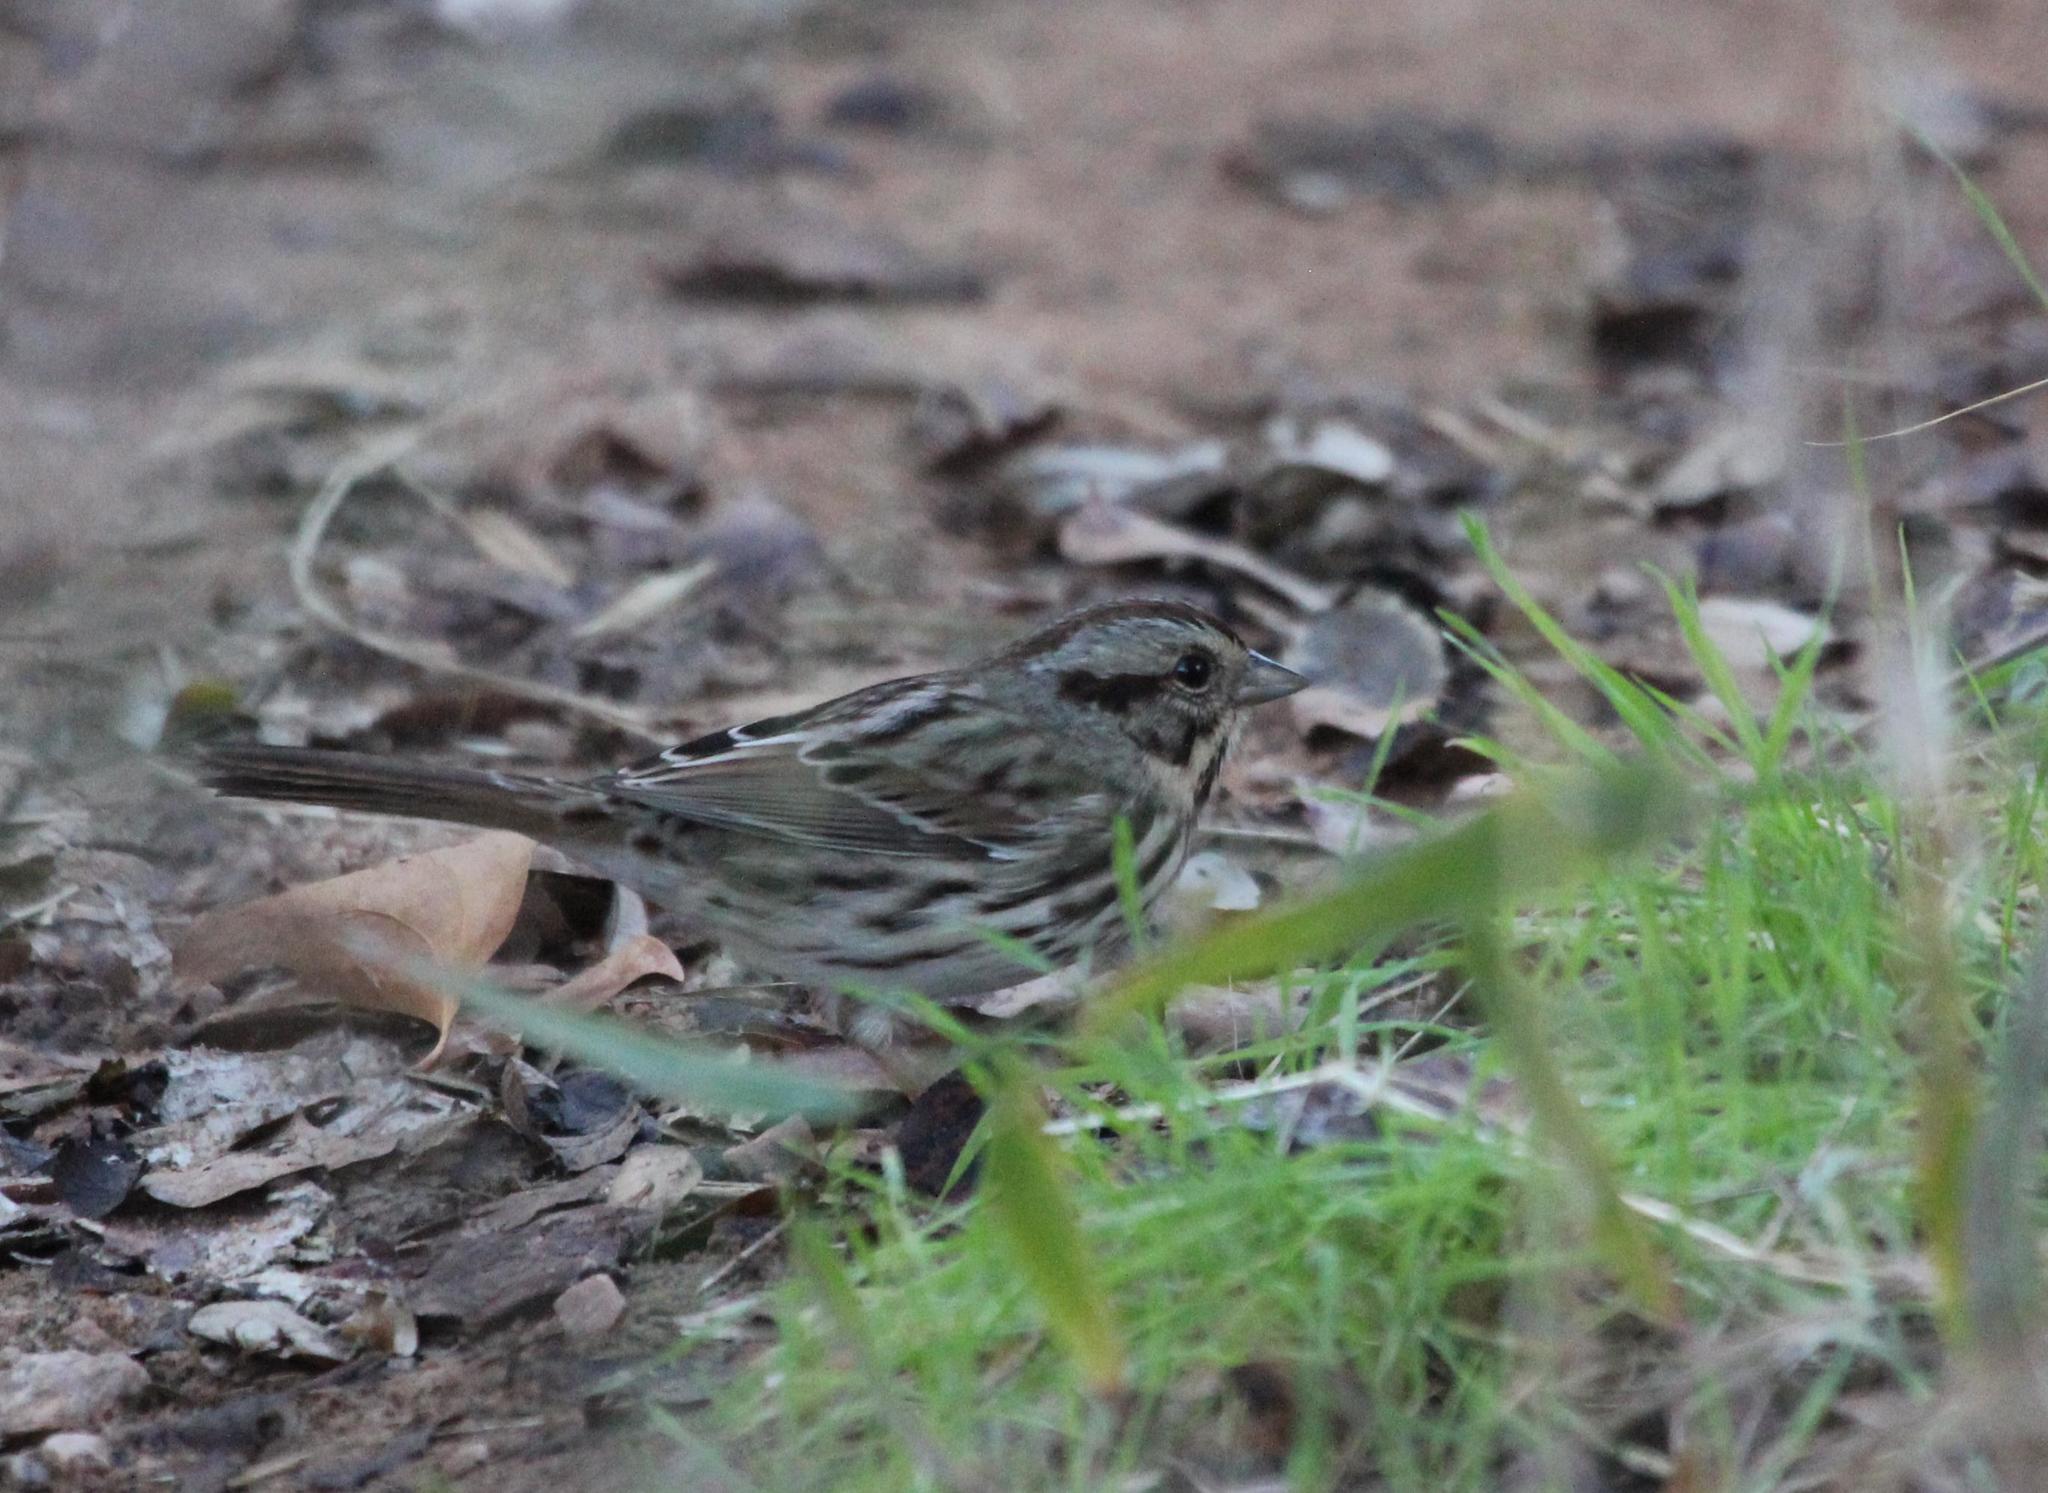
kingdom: Animalia
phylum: Chordata
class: Aves
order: Passeriformes
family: Passerellidae
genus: Melospiza
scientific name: Melospiza melodia
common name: Song sparrow
